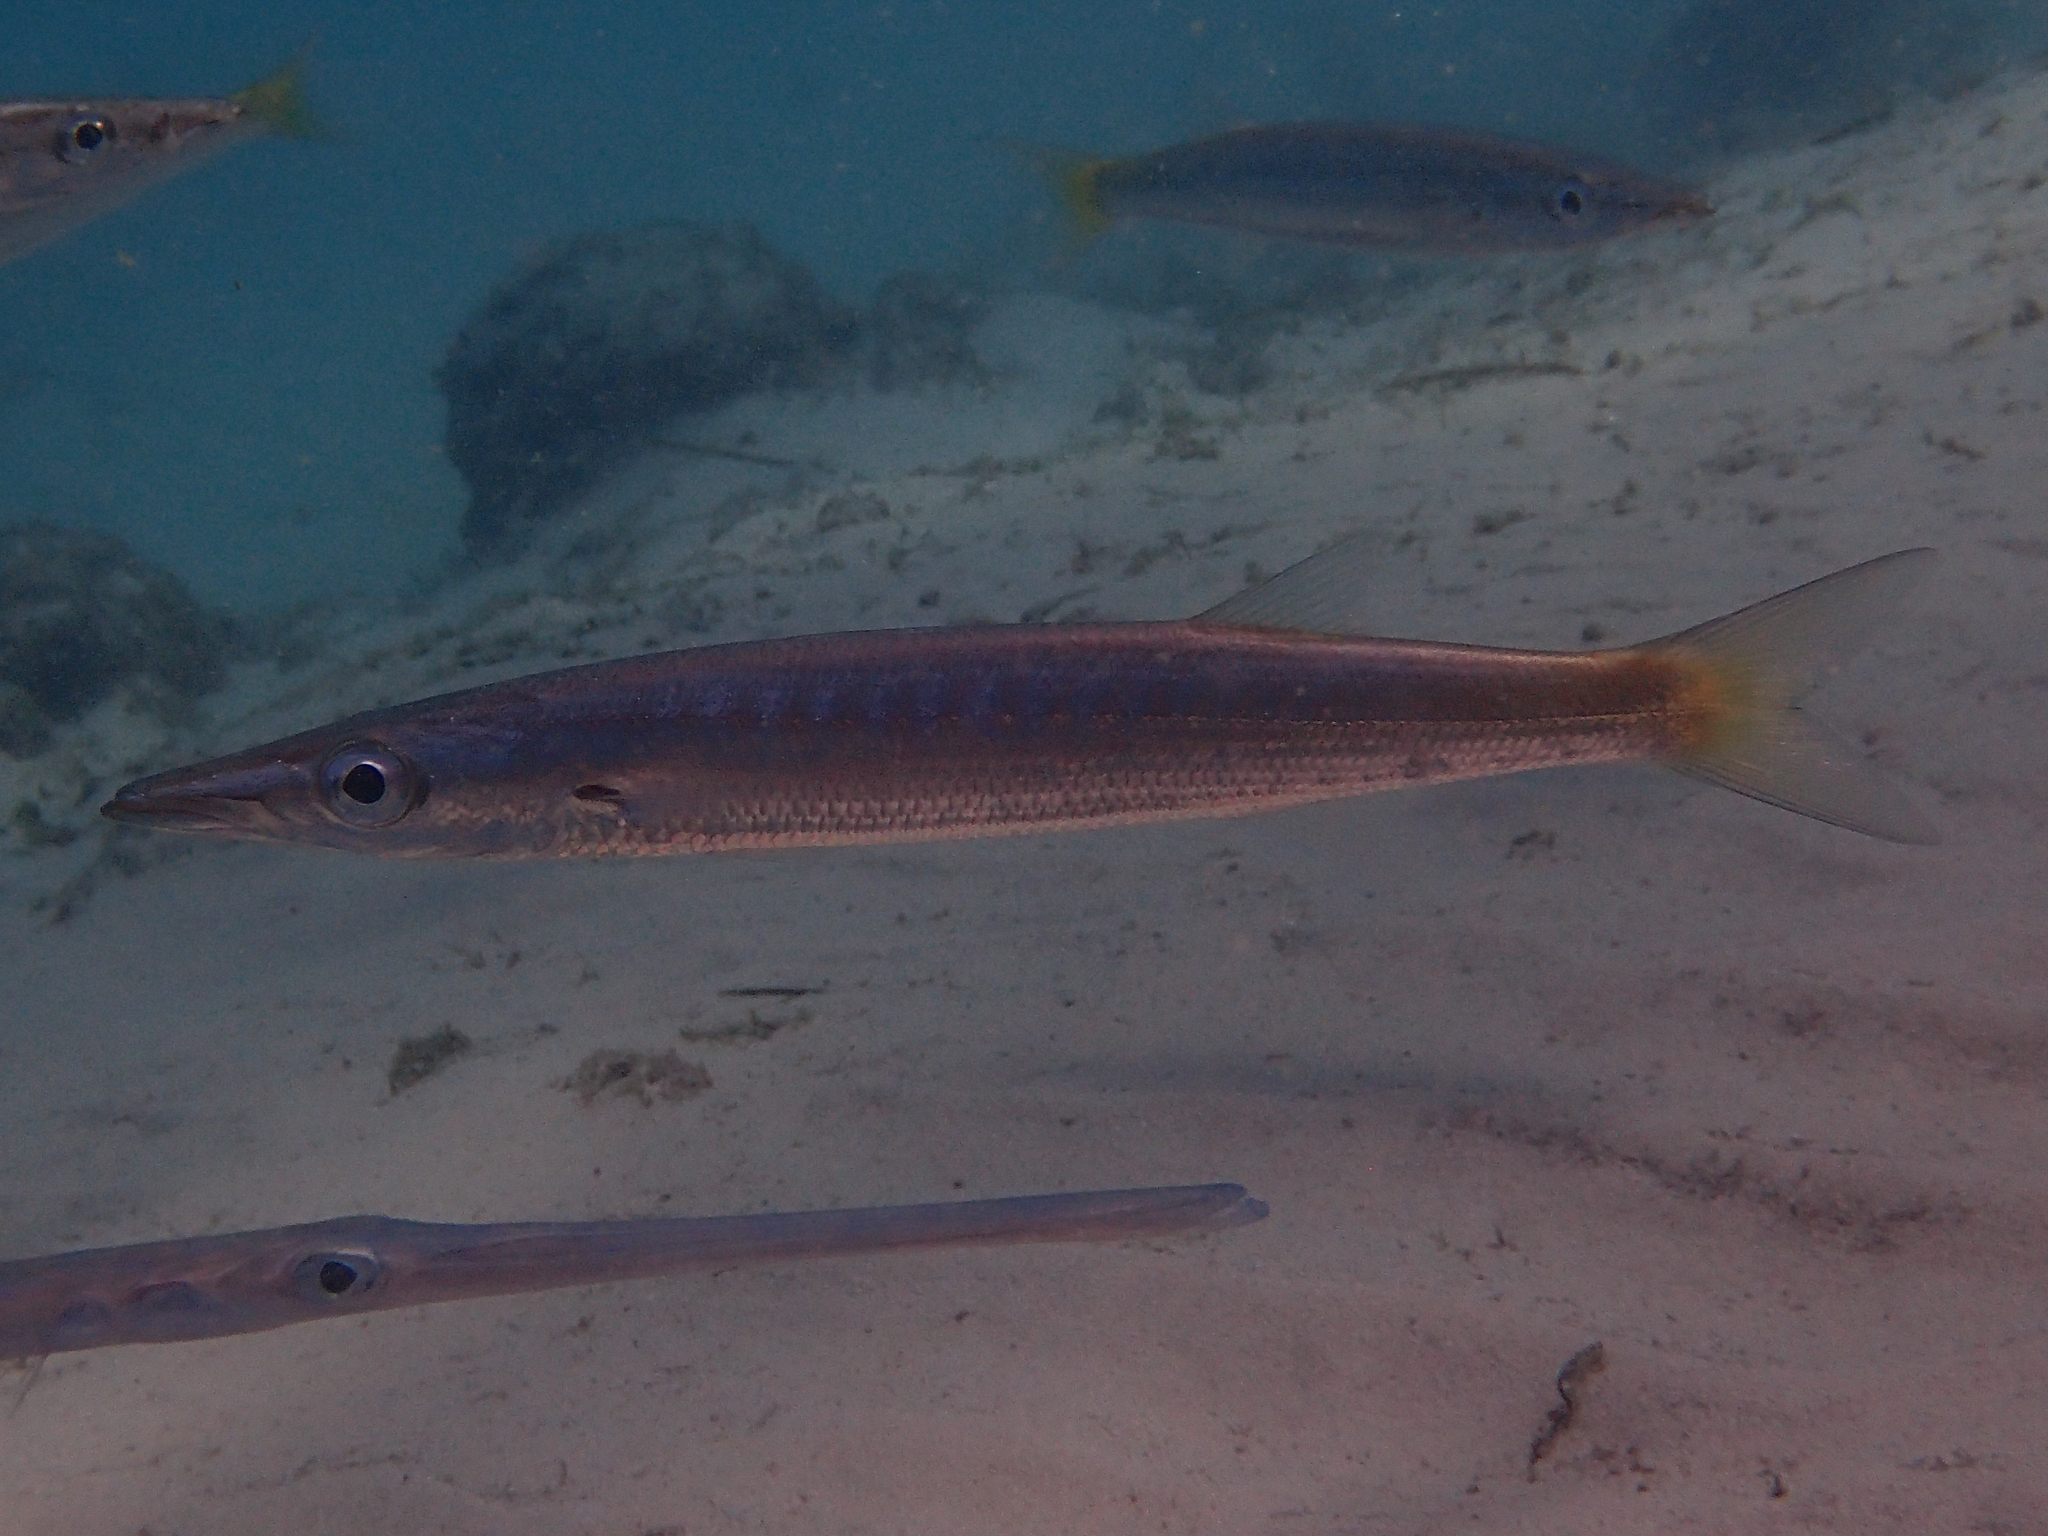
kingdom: Animalia
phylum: Chordata
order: Perciformes
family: Sphyraenidae
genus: Sphyraena
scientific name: Sphyraena obtusata
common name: Obtuse barracuda
